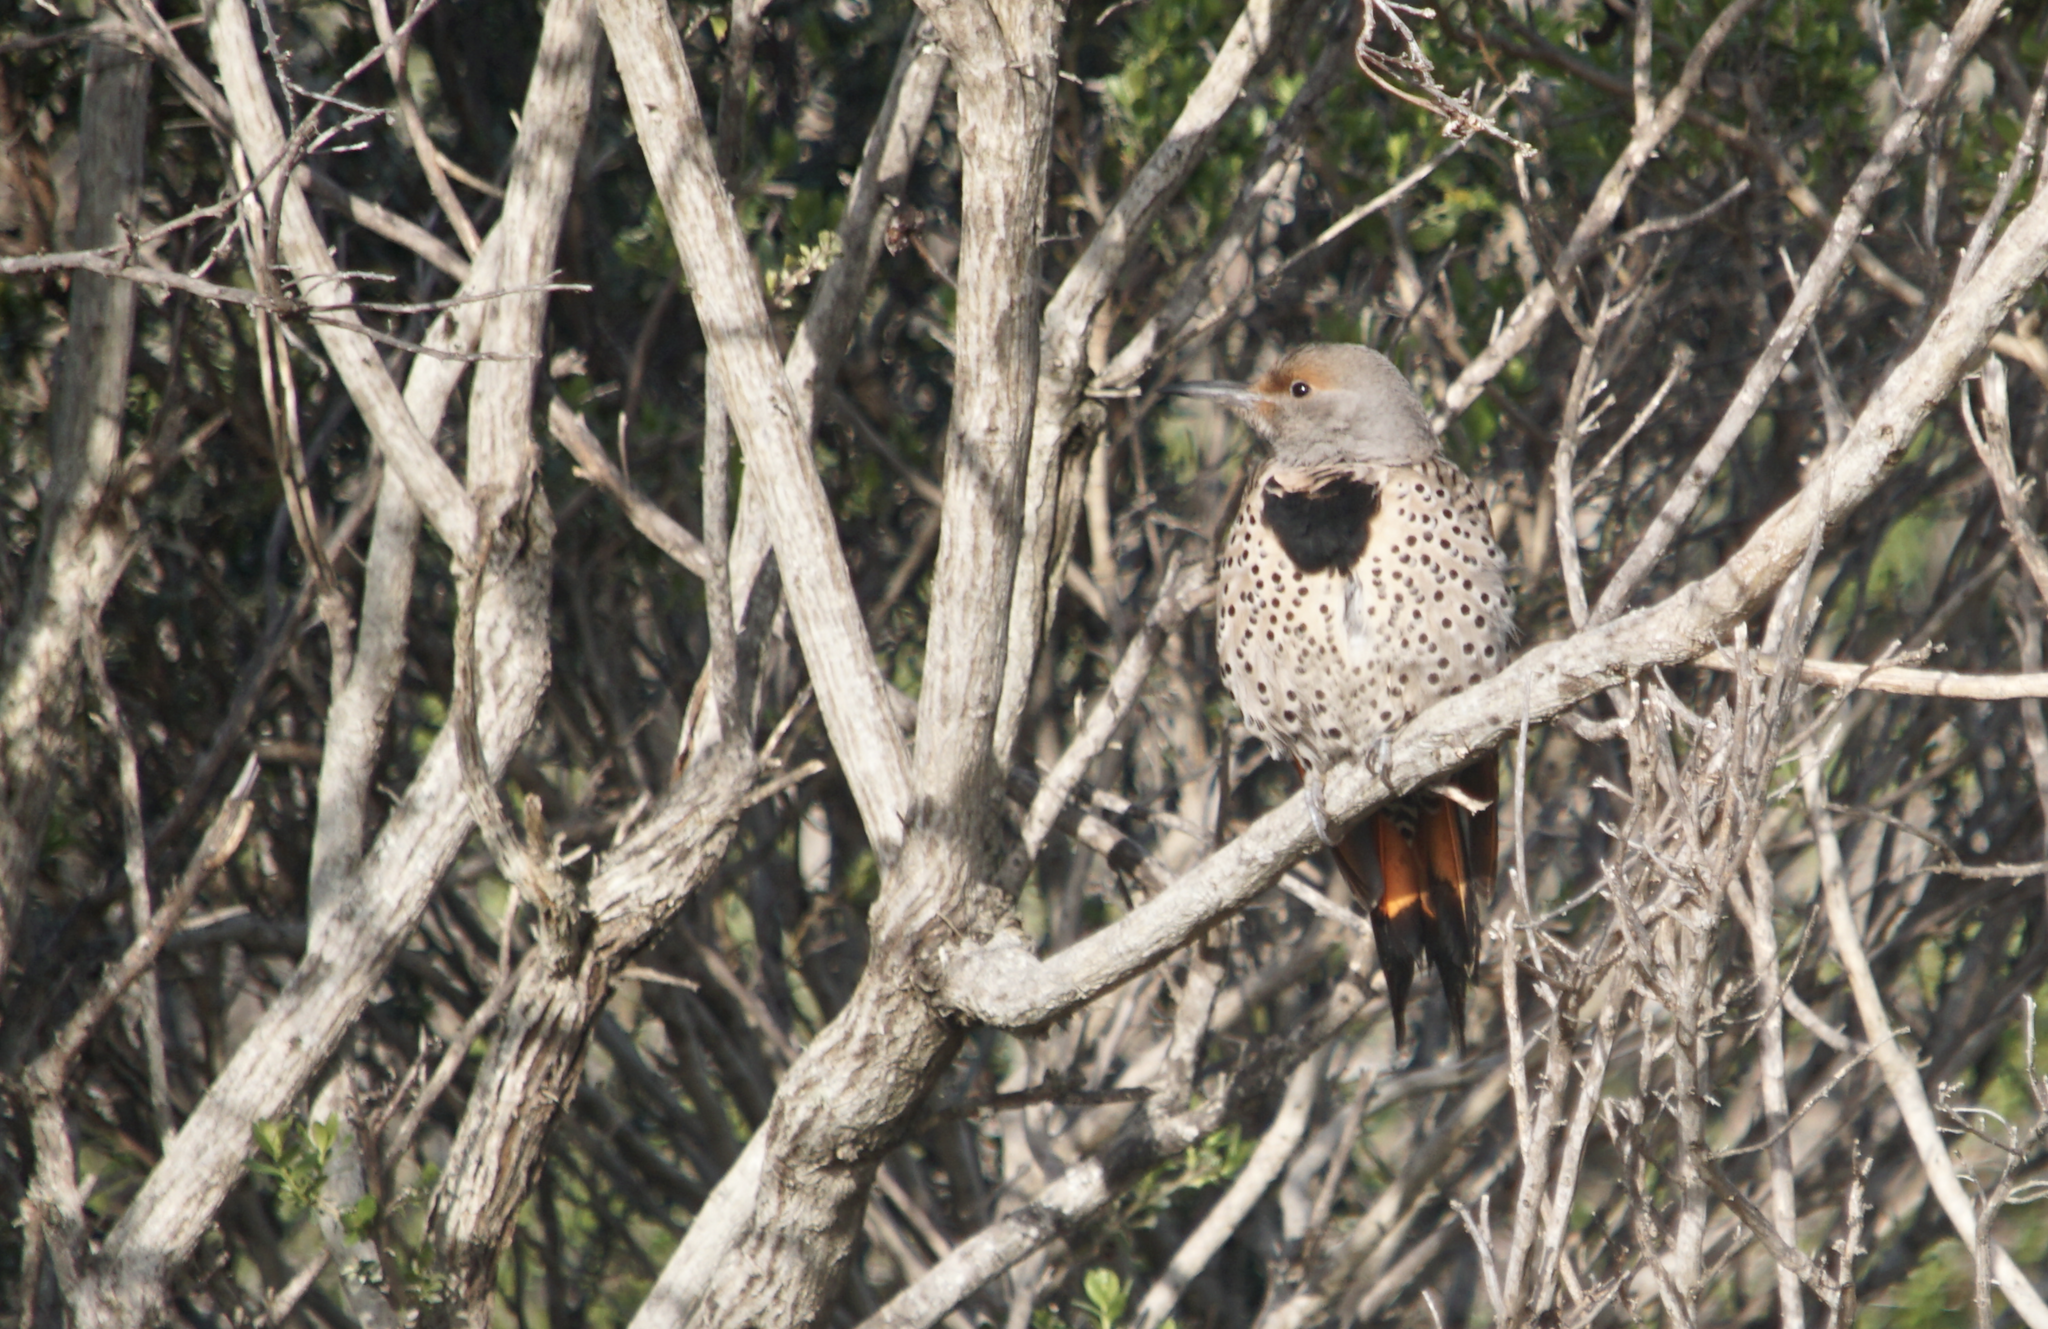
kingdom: Animalia
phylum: Chordata
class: Aves
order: Piciformes
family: Picidae
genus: Colaptes
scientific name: Colaptes auratus
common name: Northern flicker
